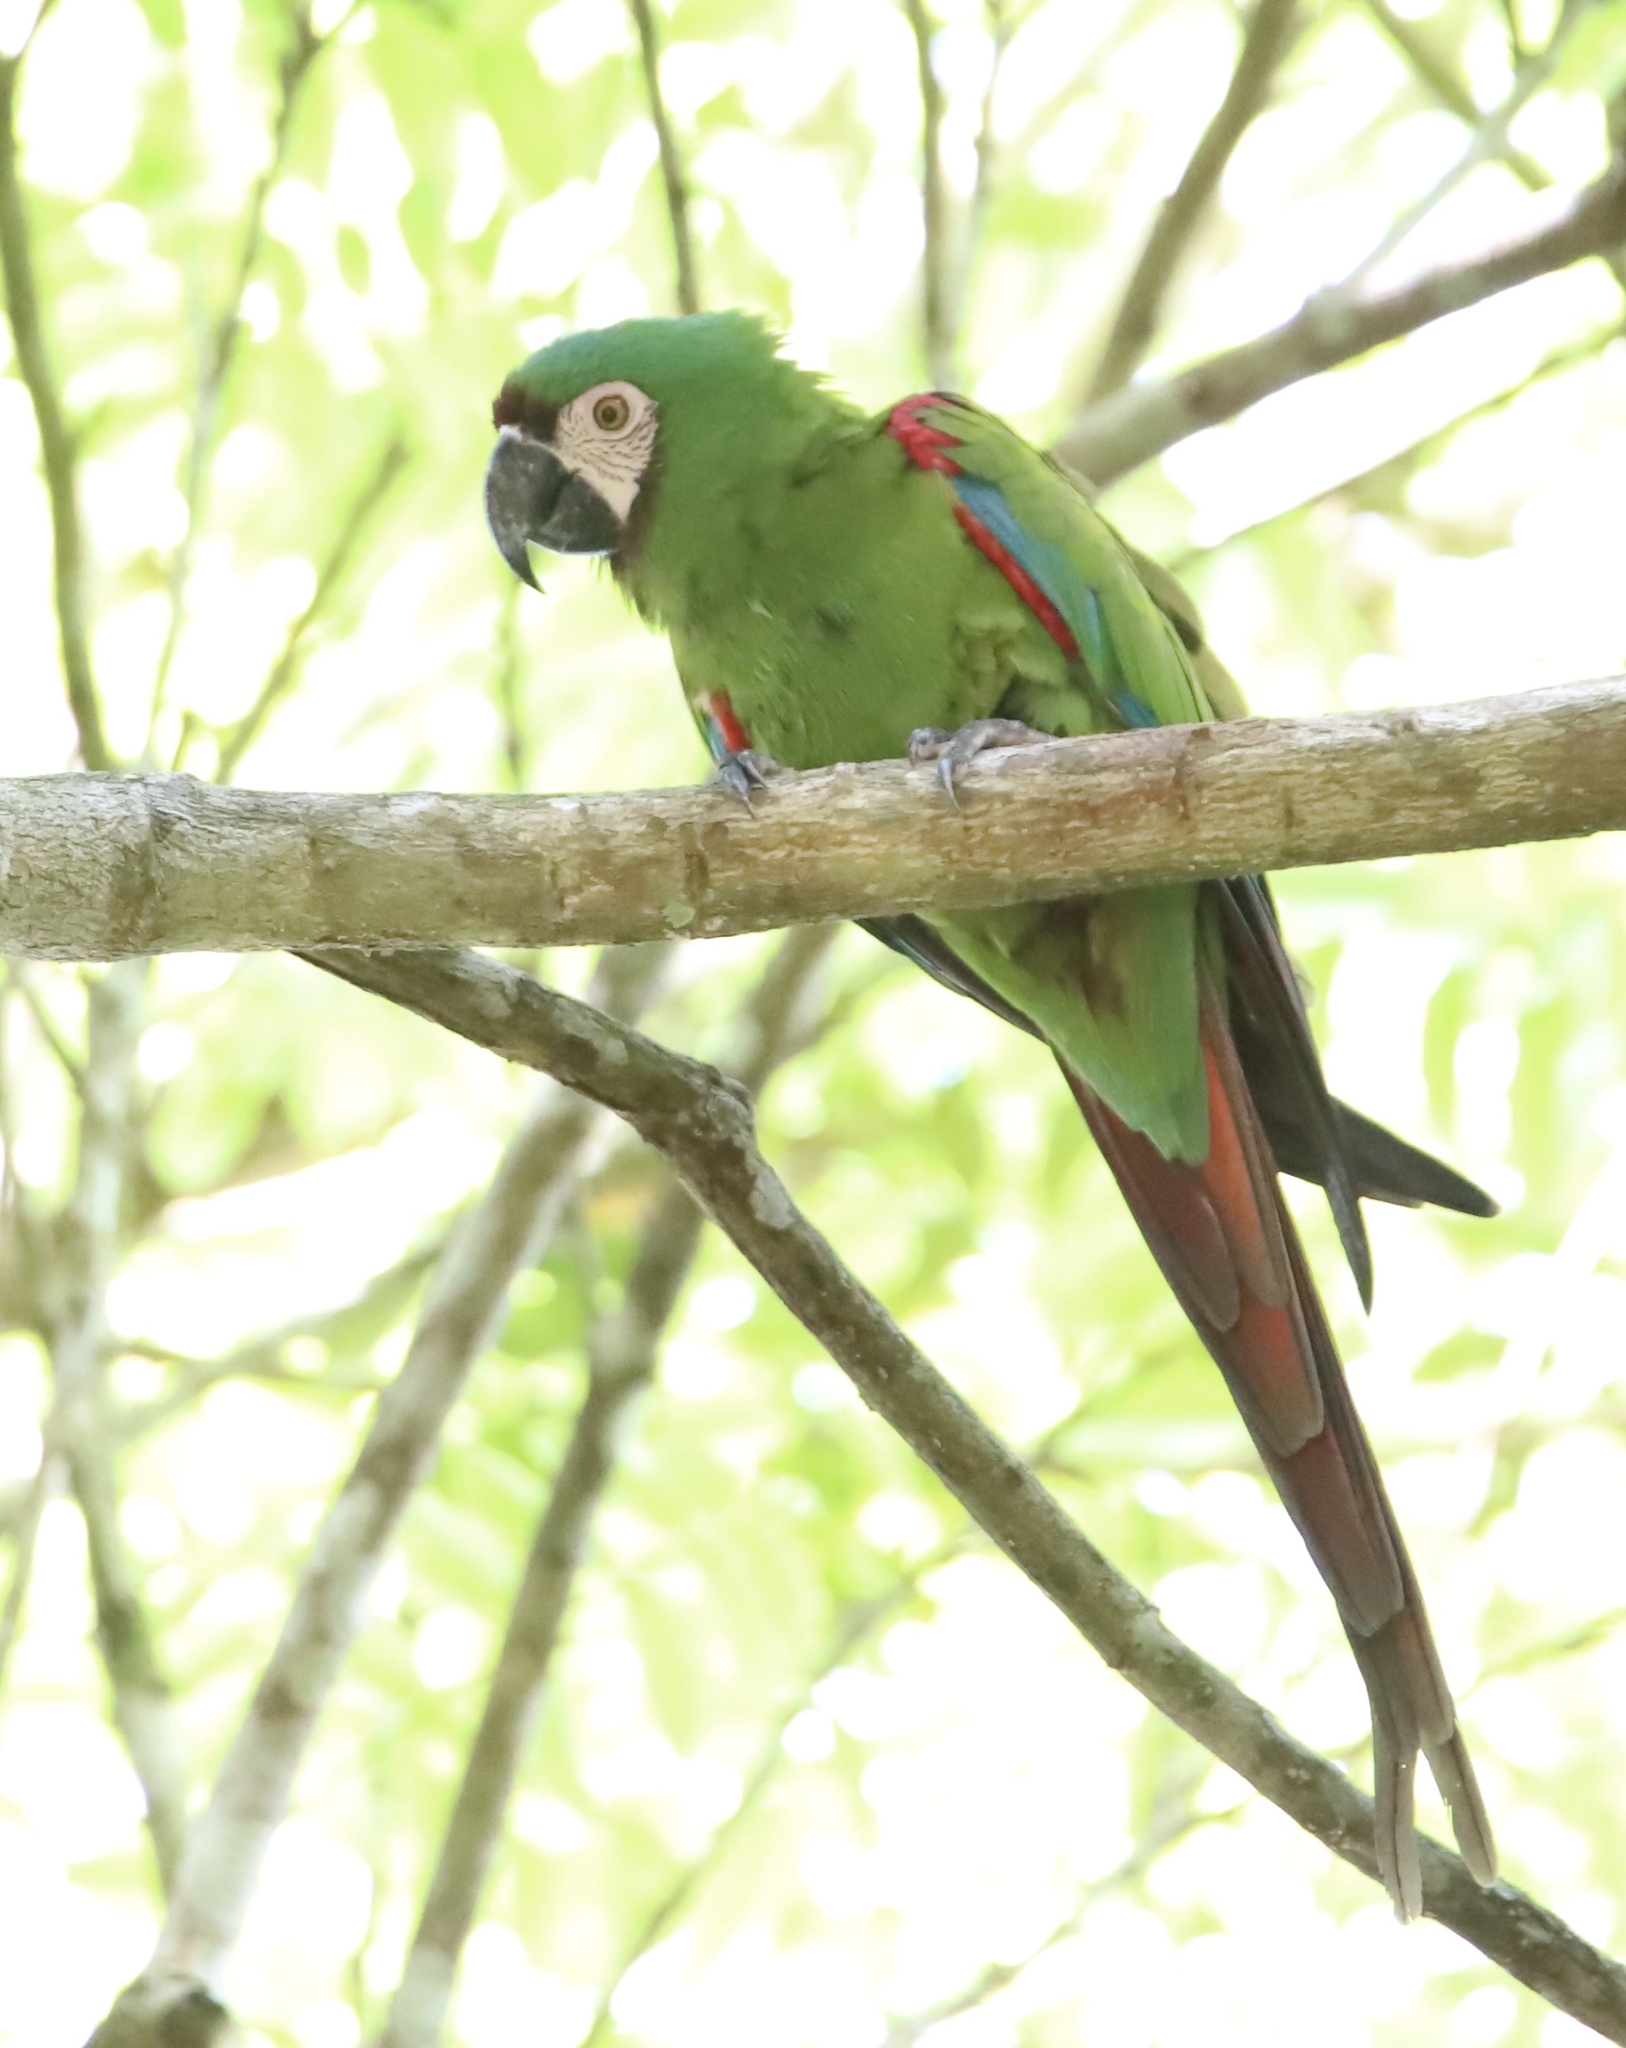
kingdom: Animalia
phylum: Chordata
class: Aves
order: Psittaciformes
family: Psittacidae
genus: Ara
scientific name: Ara severus
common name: Chestnut-fronted macaw
